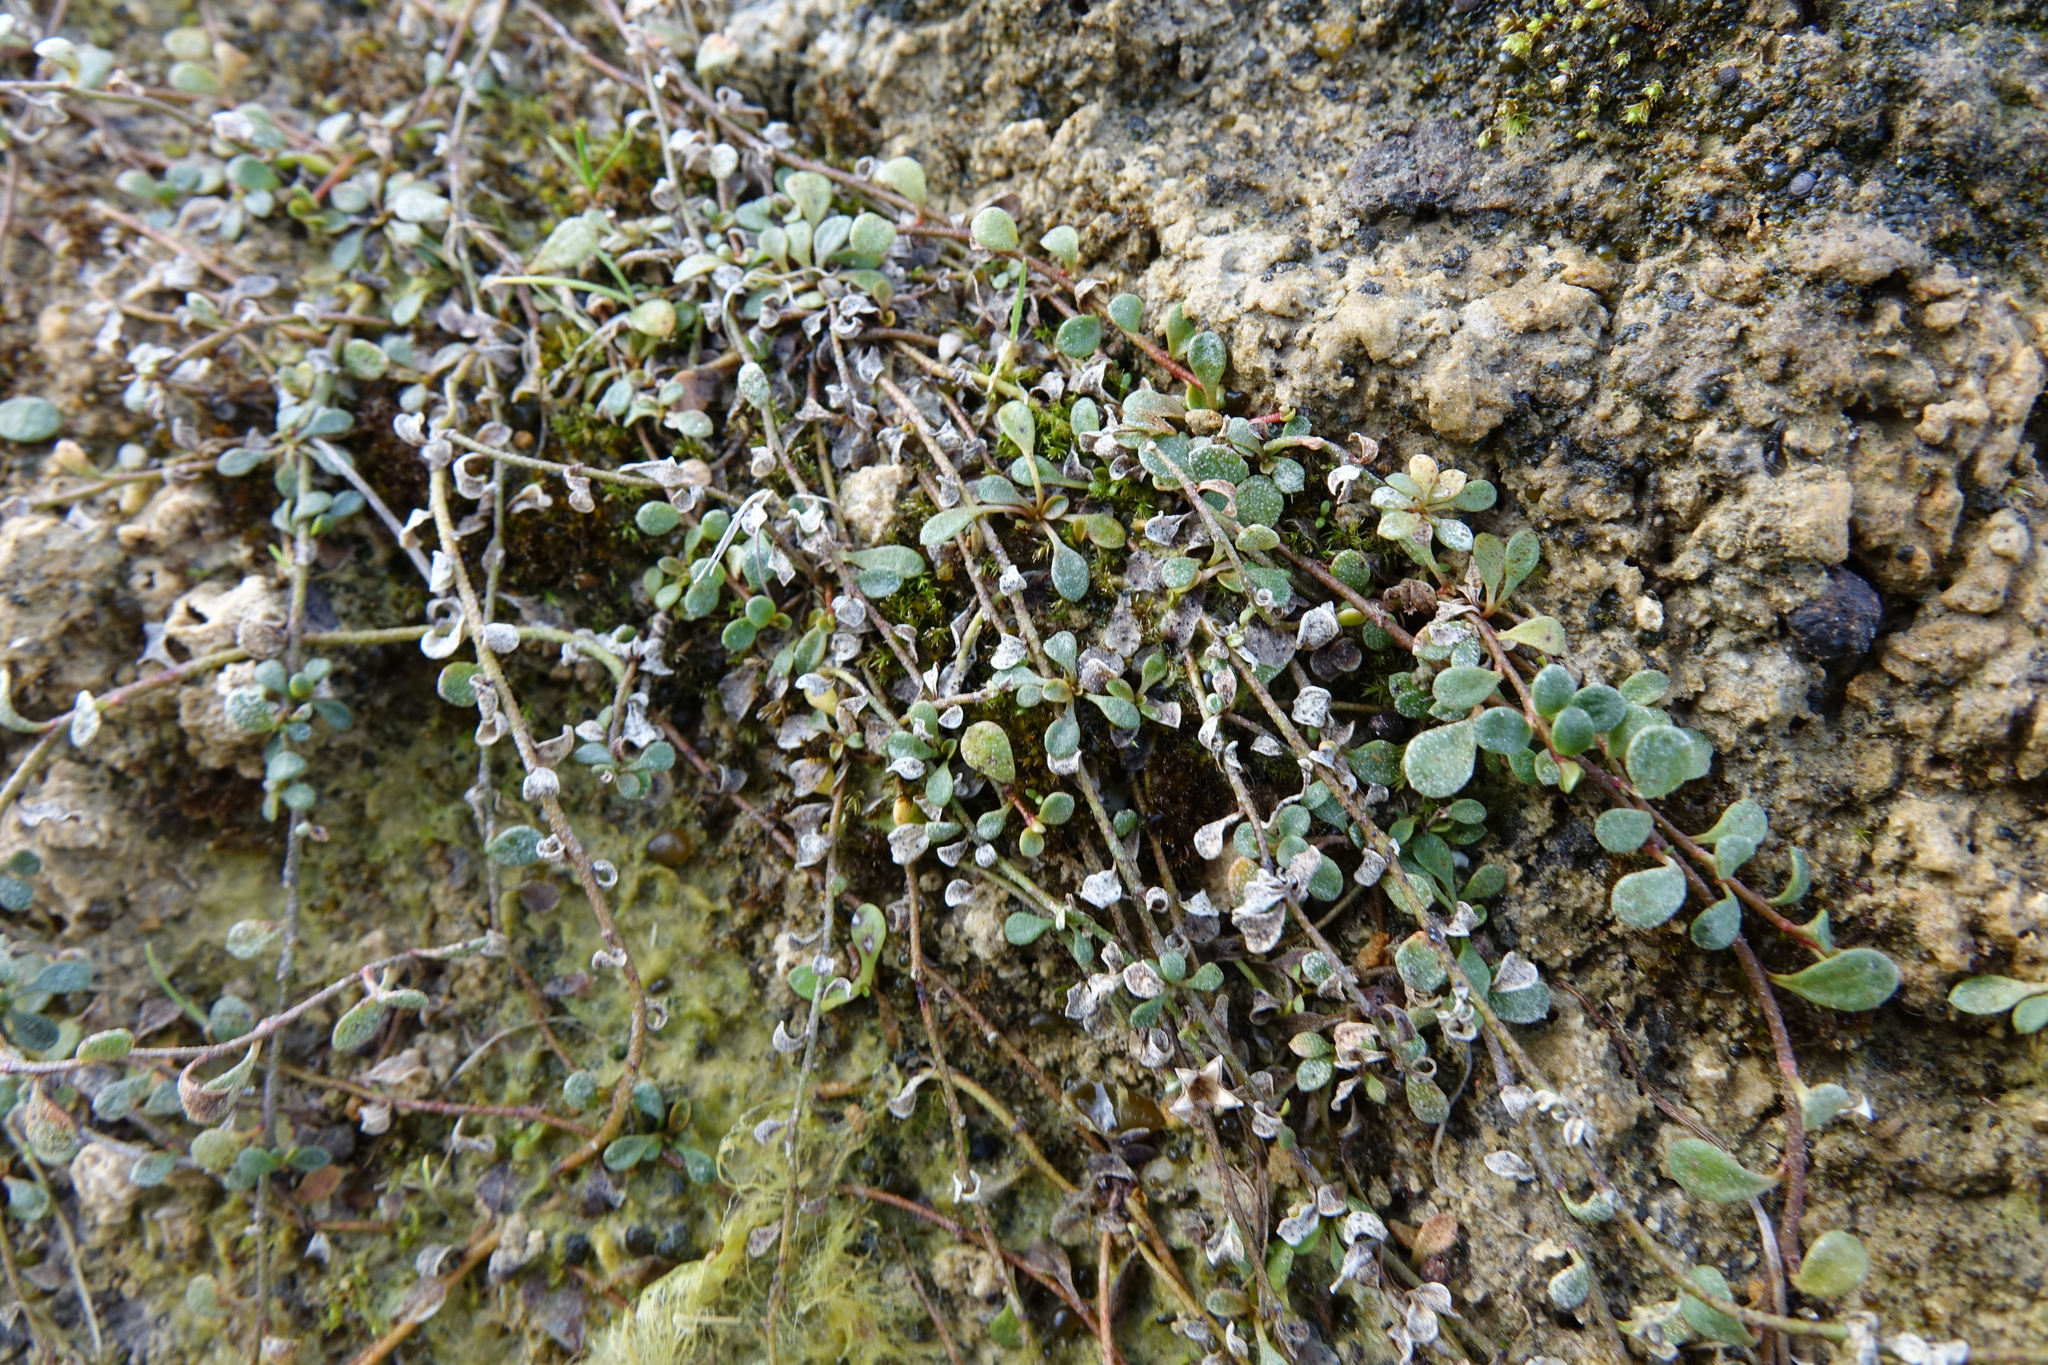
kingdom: Plantae
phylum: Tracheophyta
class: Magnoliopsida
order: Ericales
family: Primulaceae
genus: Samolus
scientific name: Samolus repens
